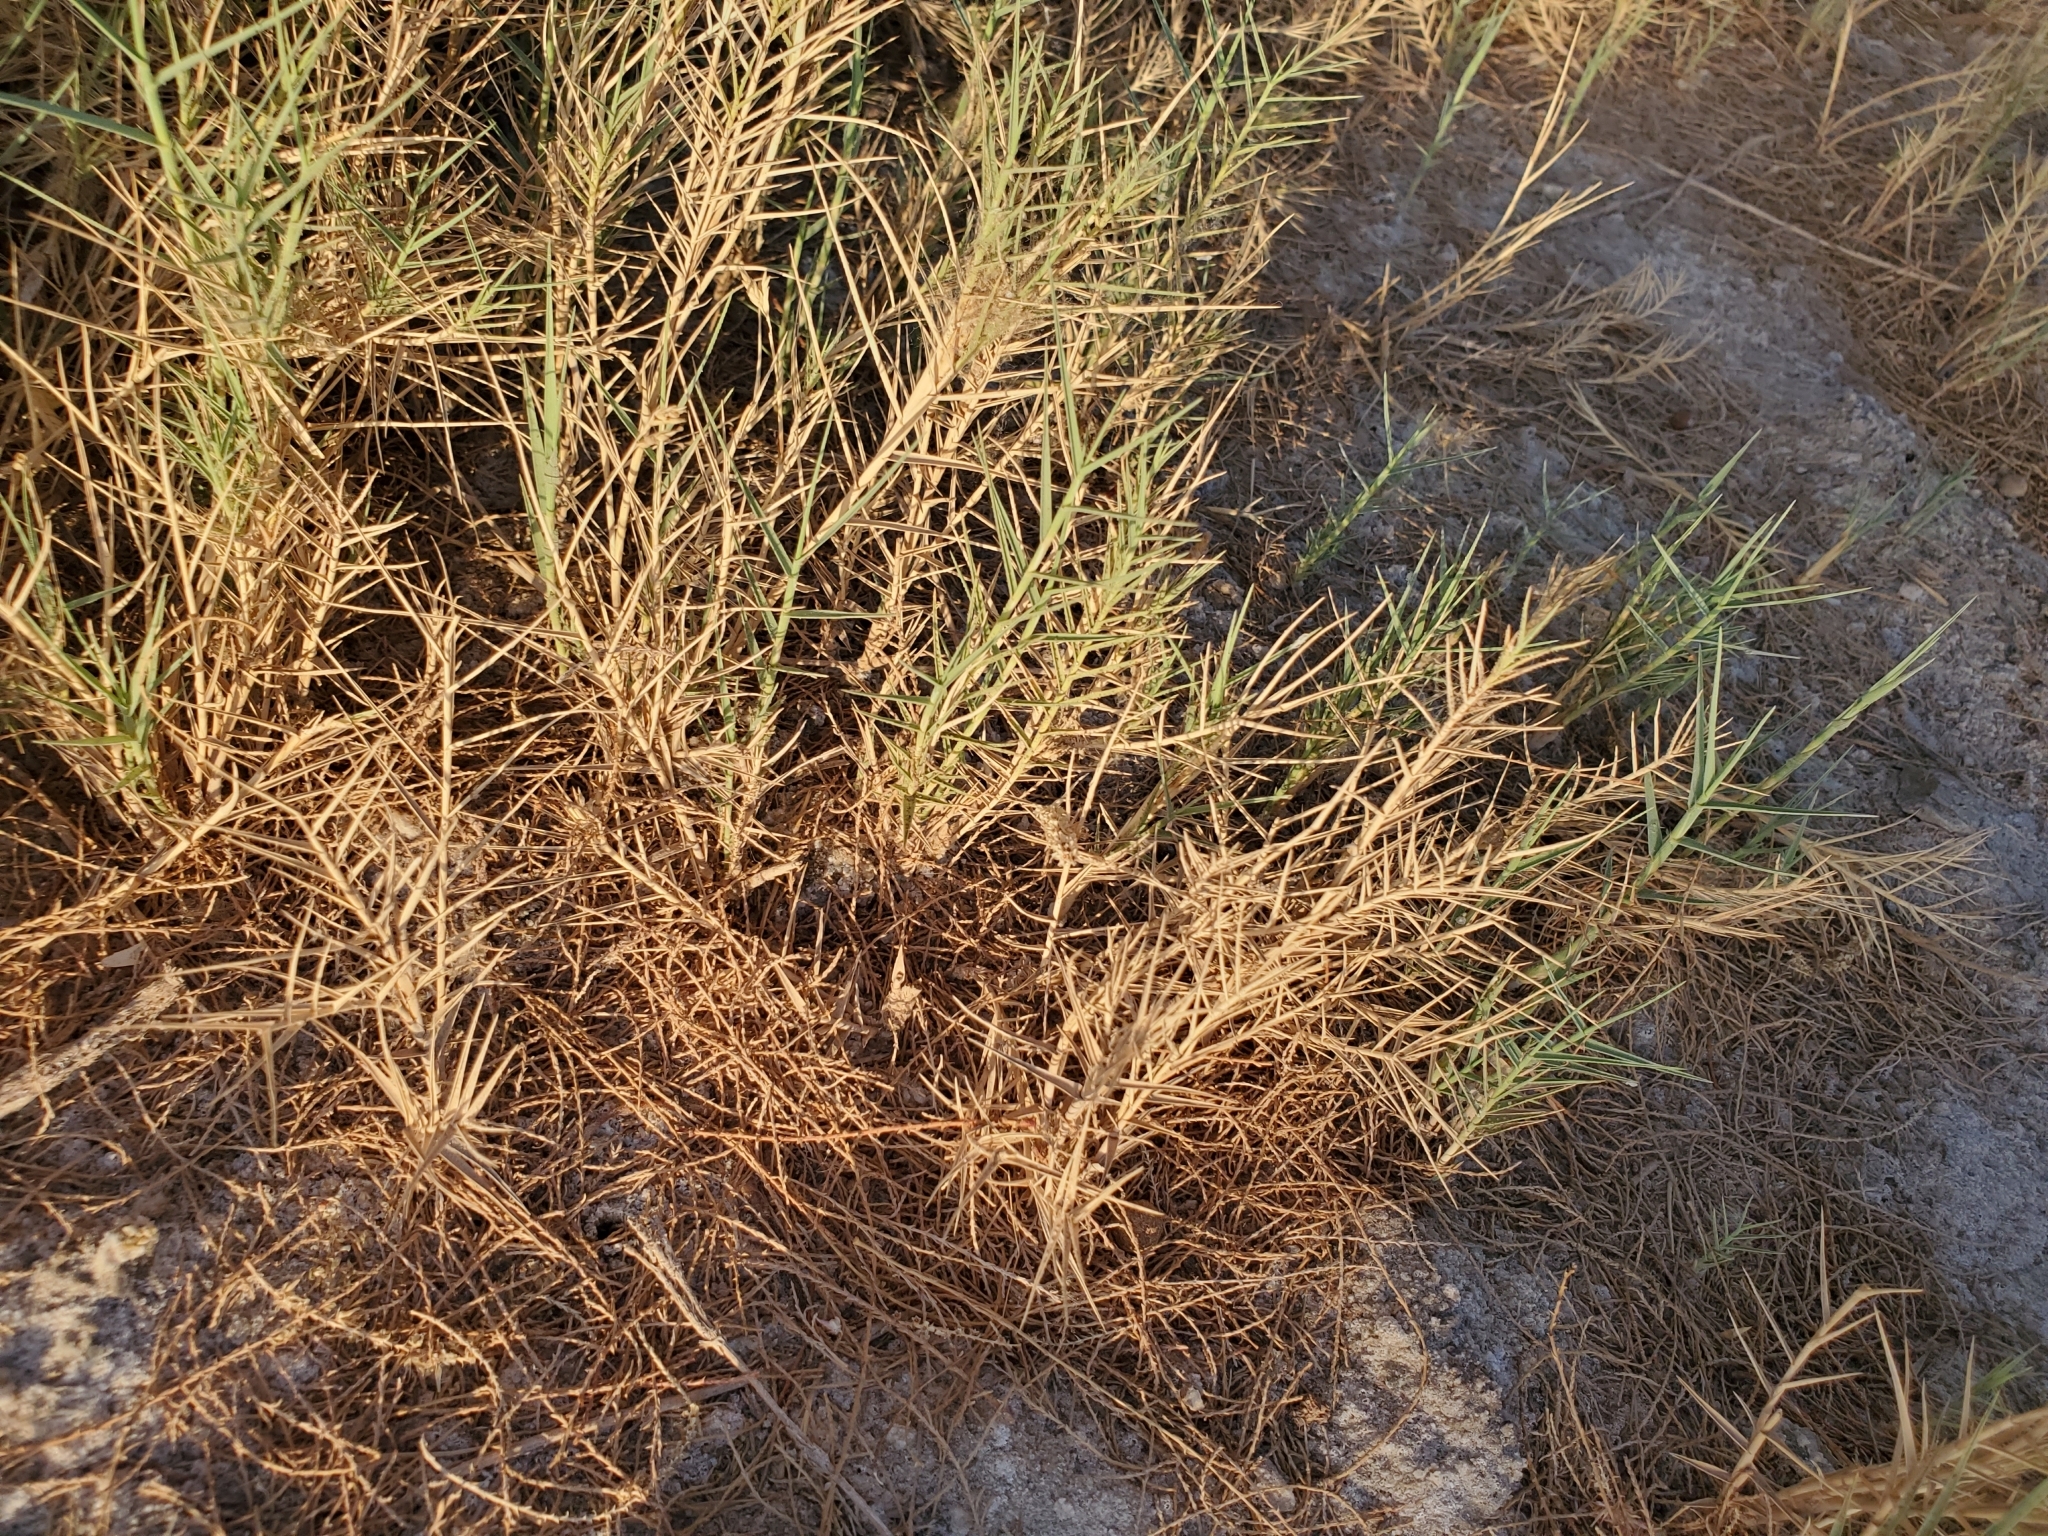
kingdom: Plantae
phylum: Tracheophyta
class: Liliopsida
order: Poales
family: Poaceae
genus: Distichlis
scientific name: Distichlis spicata
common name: Saltgrass
